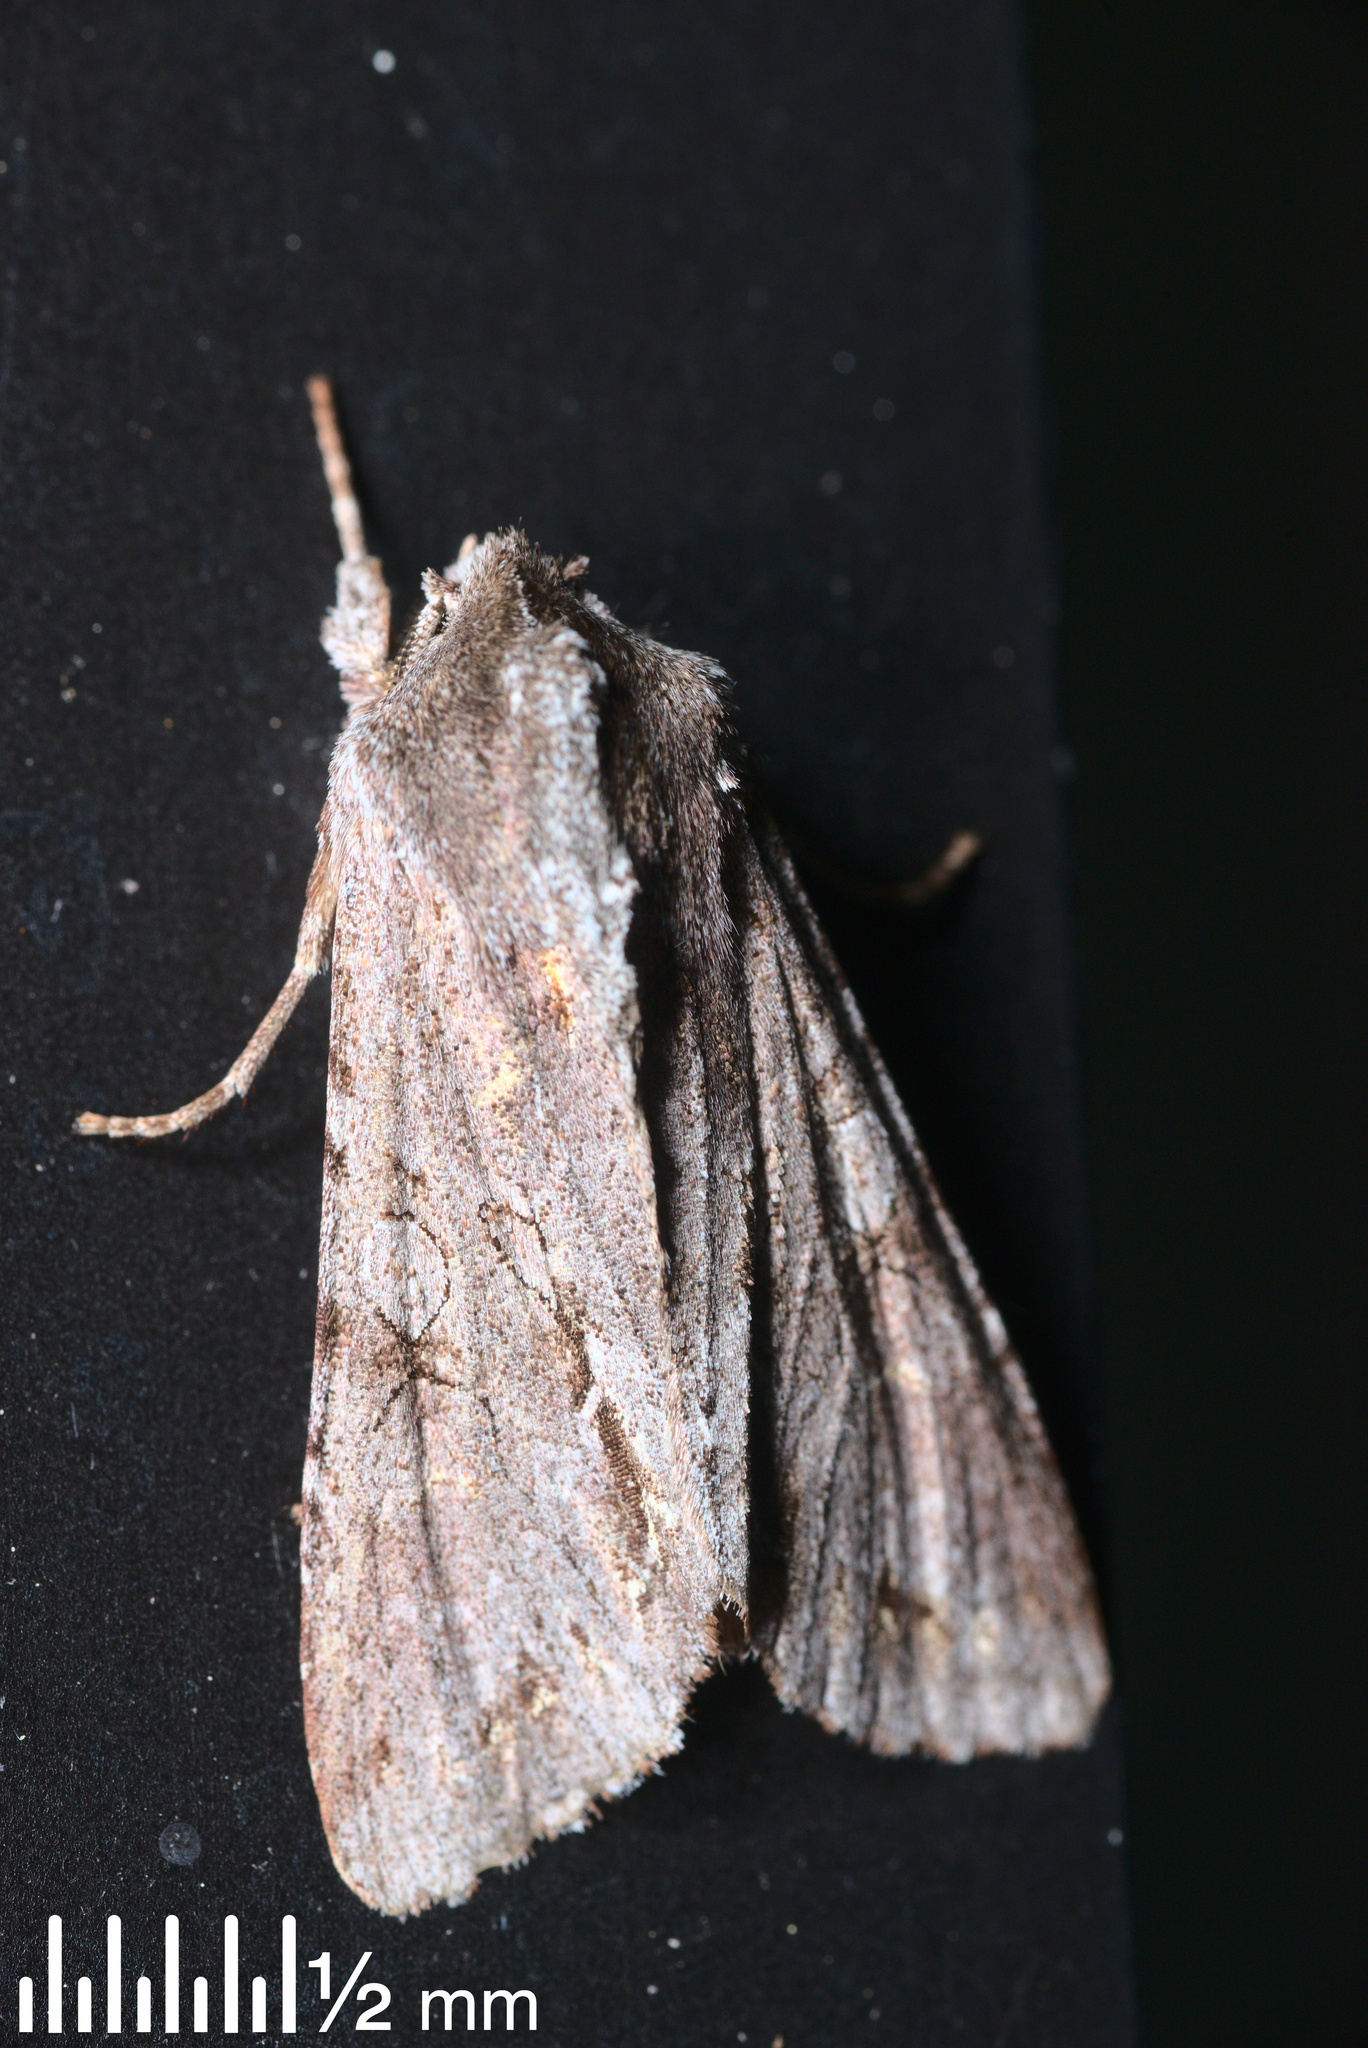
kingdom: Animalia
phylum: Arthropoda
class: Insecta
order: Lepidoptera
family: Noctuidae
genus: Ichneutica
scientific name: Ichneutica
